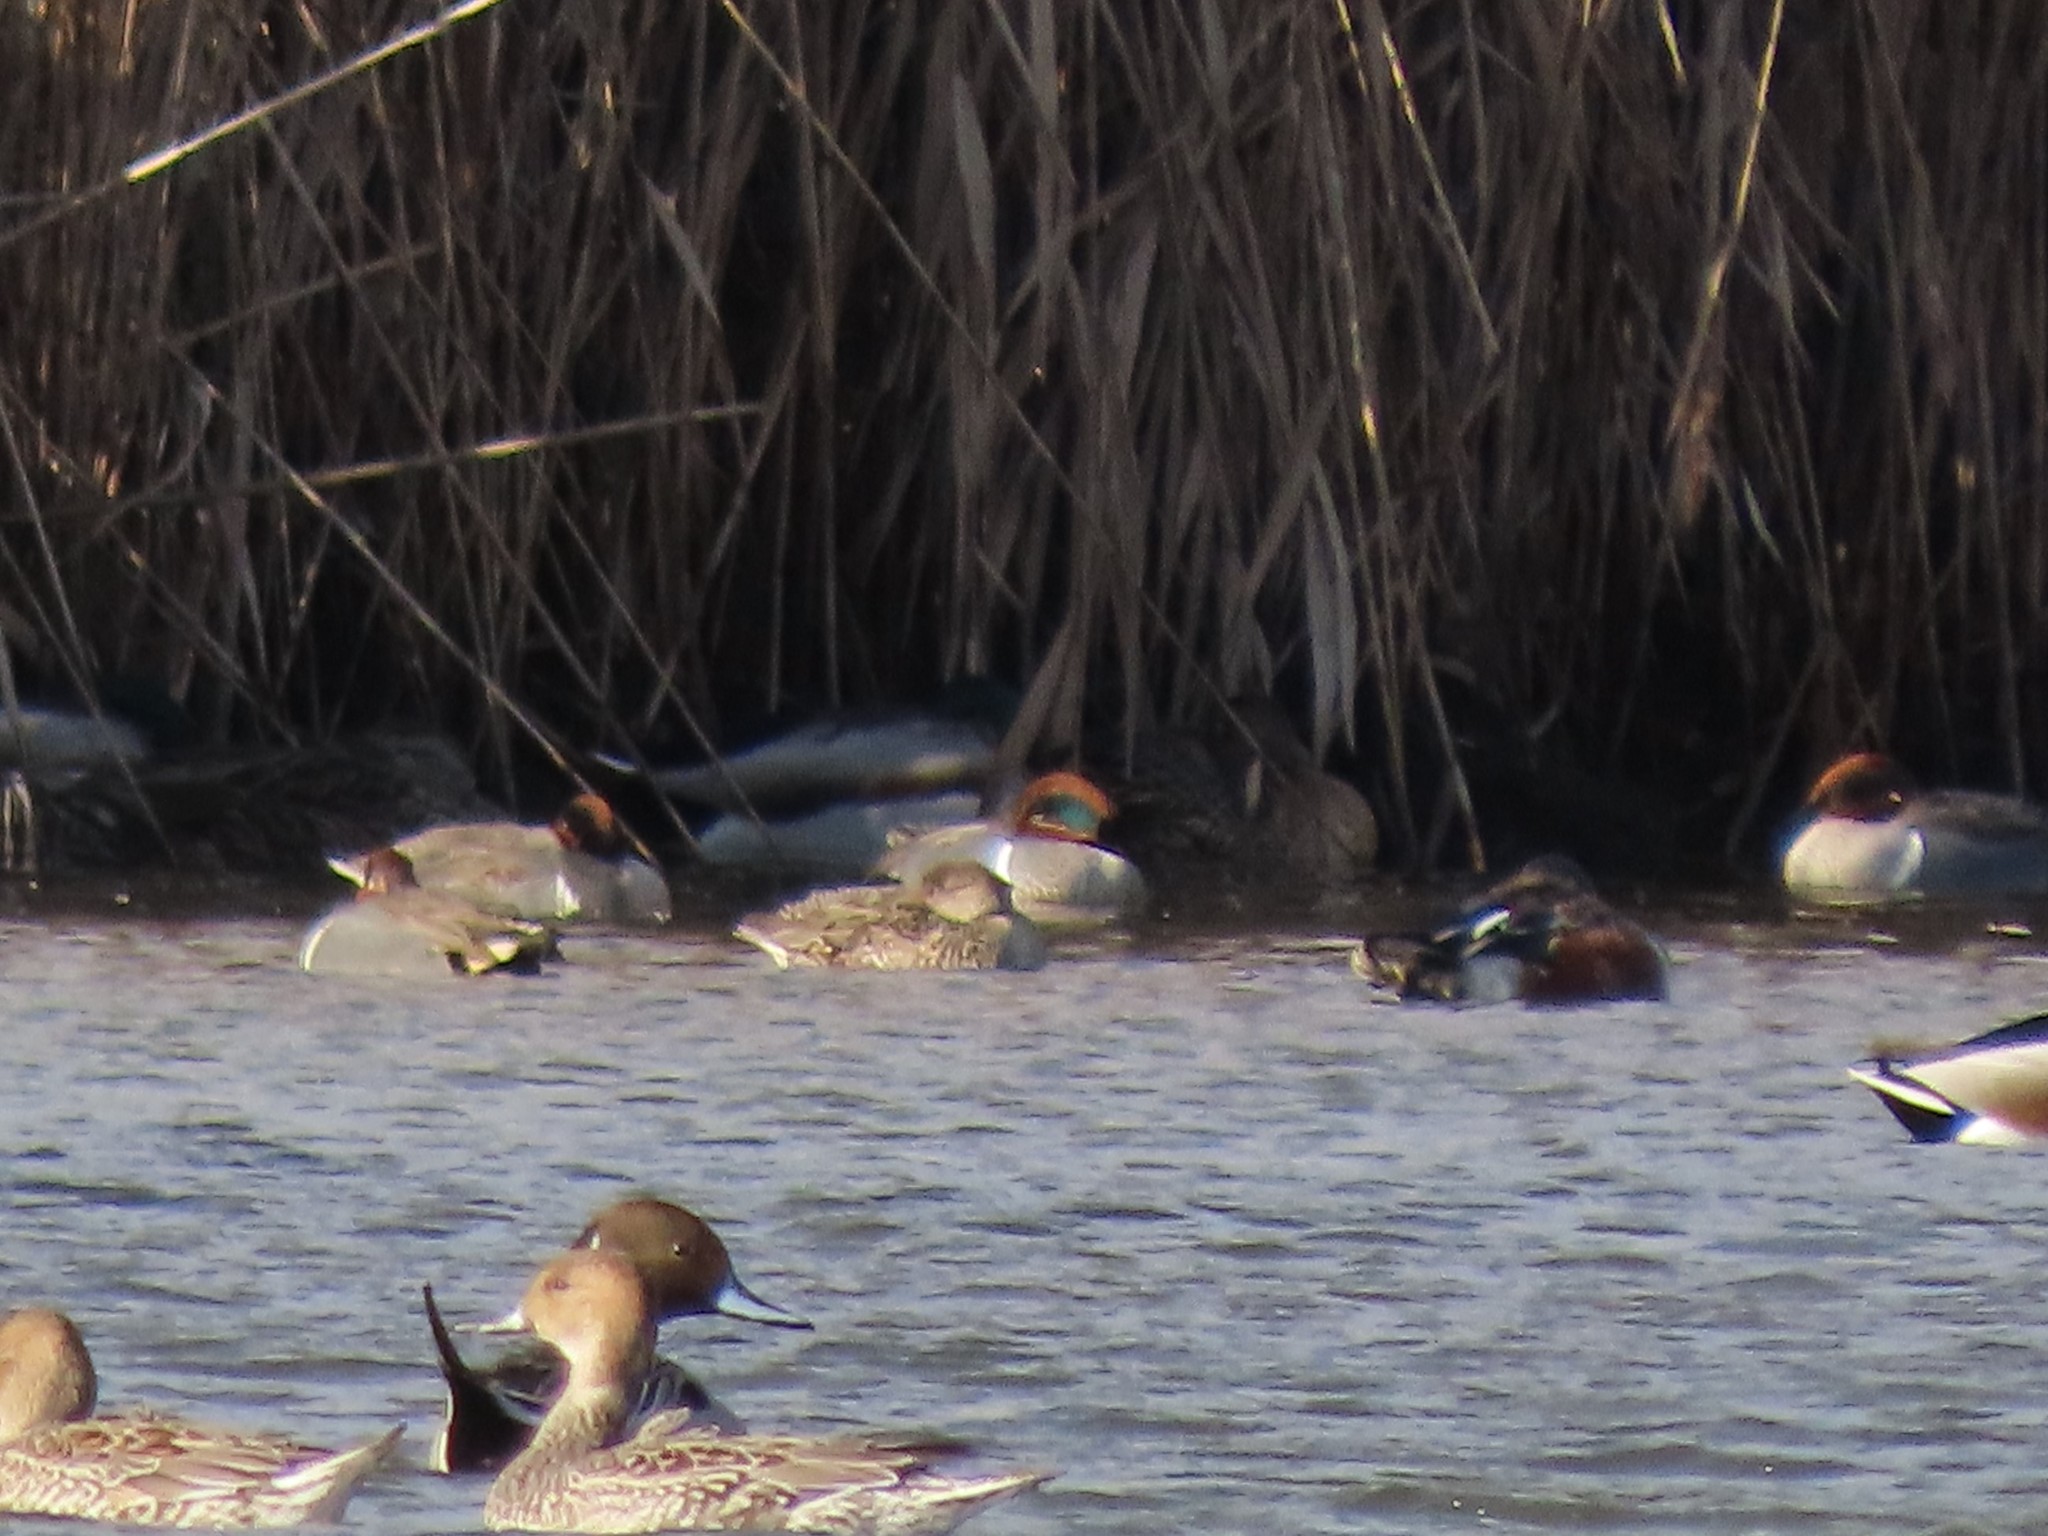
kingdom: Animalia
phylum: Chordata
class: Aves
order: Anseriformes
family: Anatidae
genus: Anas
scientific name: Anas crecca
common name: Eurasian teal
